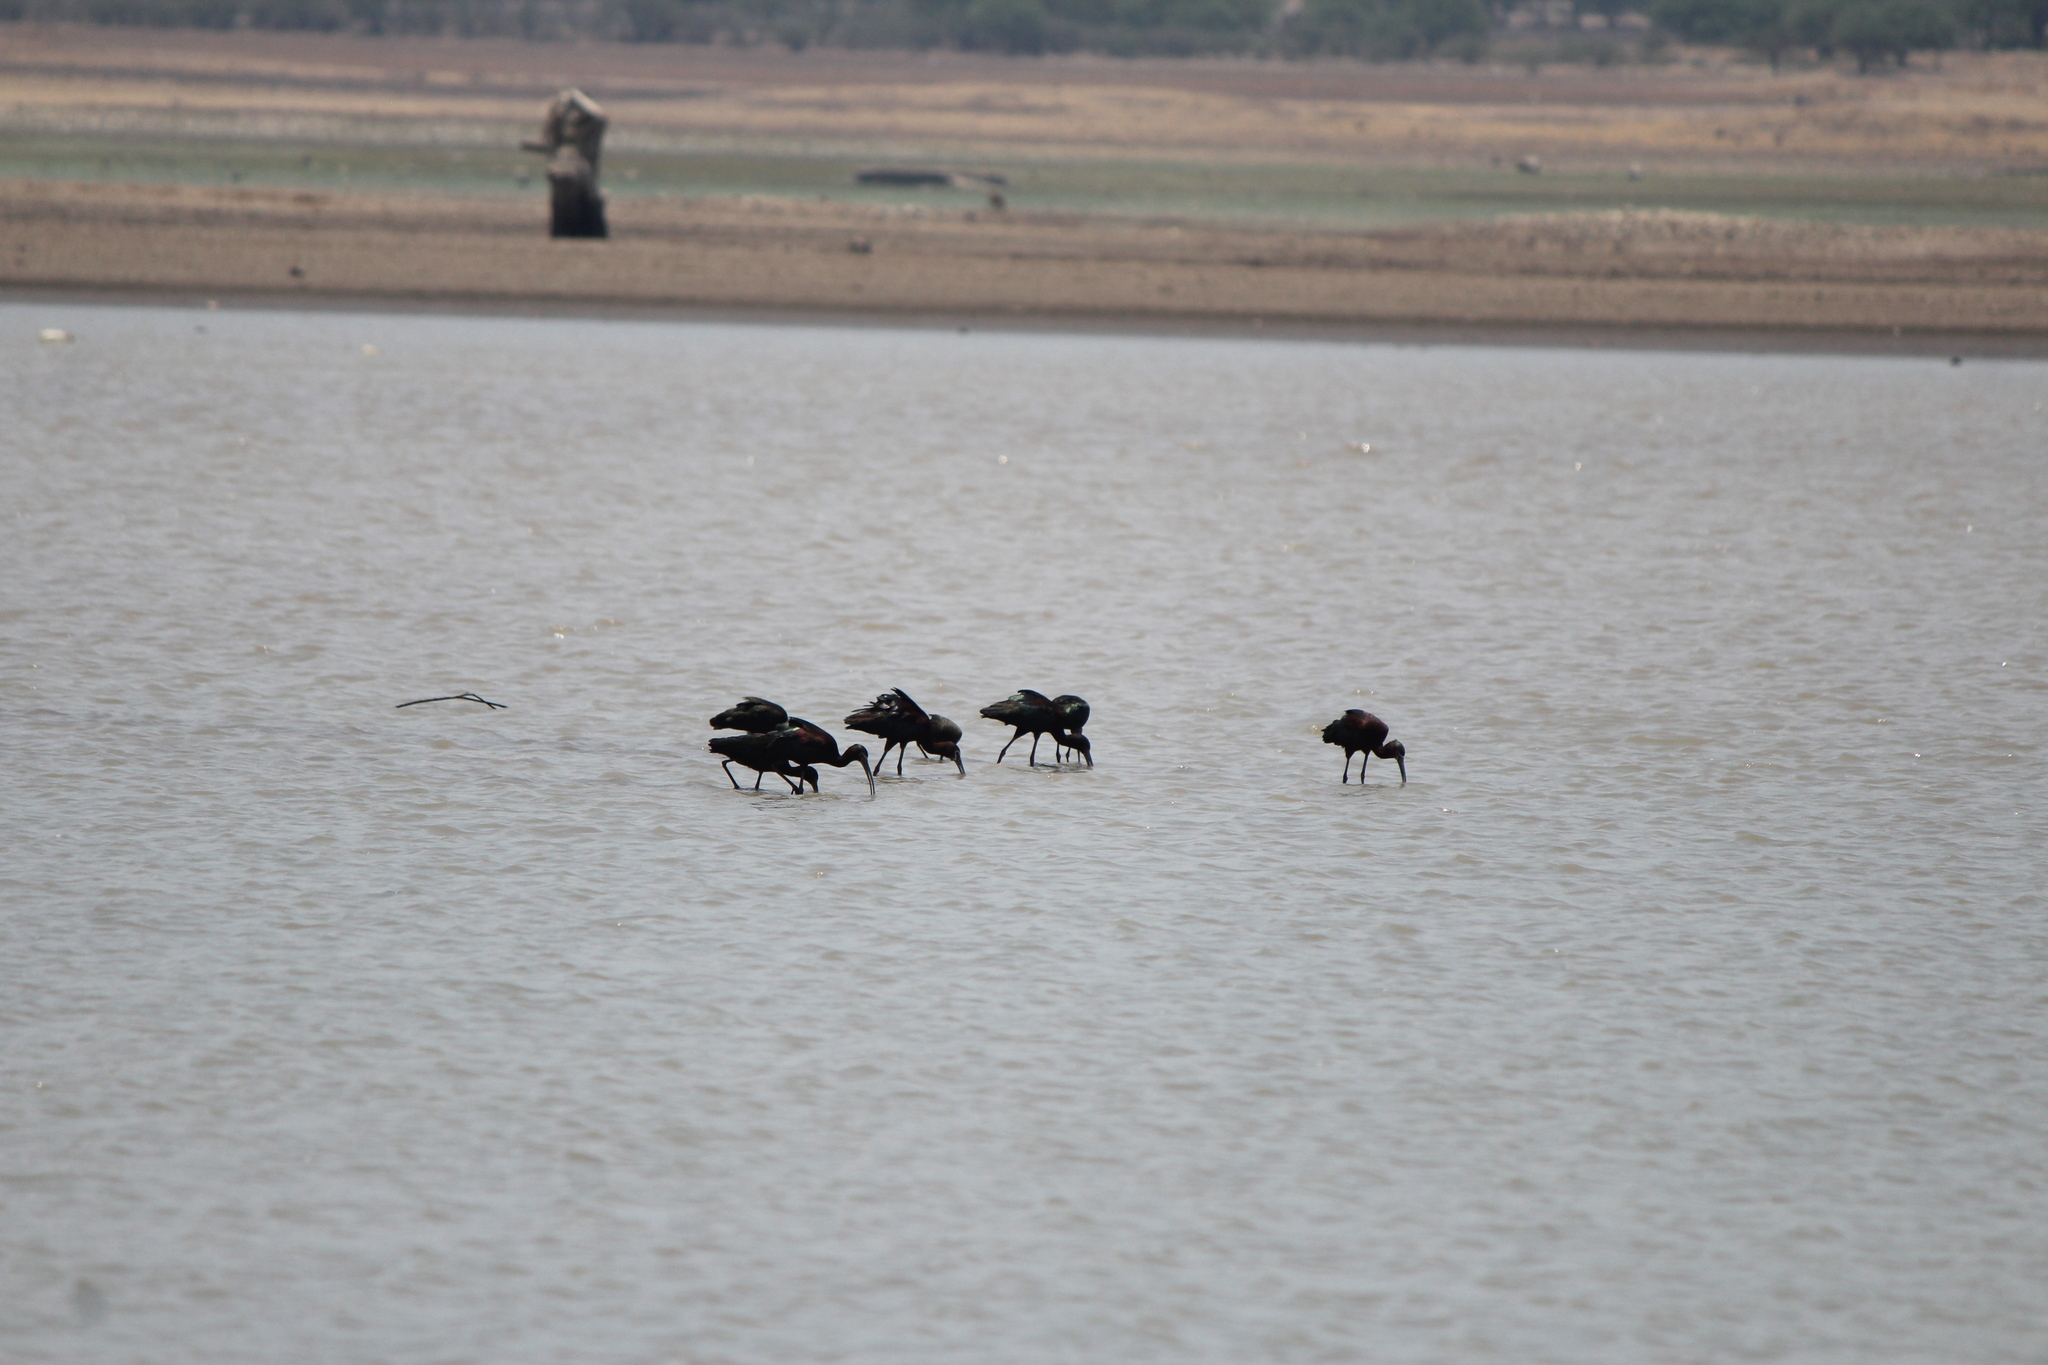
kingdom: Animalia
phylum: Chordata
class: Aves
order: Pelecaniformes
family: Threskiornithidae
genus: Plegadis
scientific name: Plegadis chihi
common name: White-faced ibis
